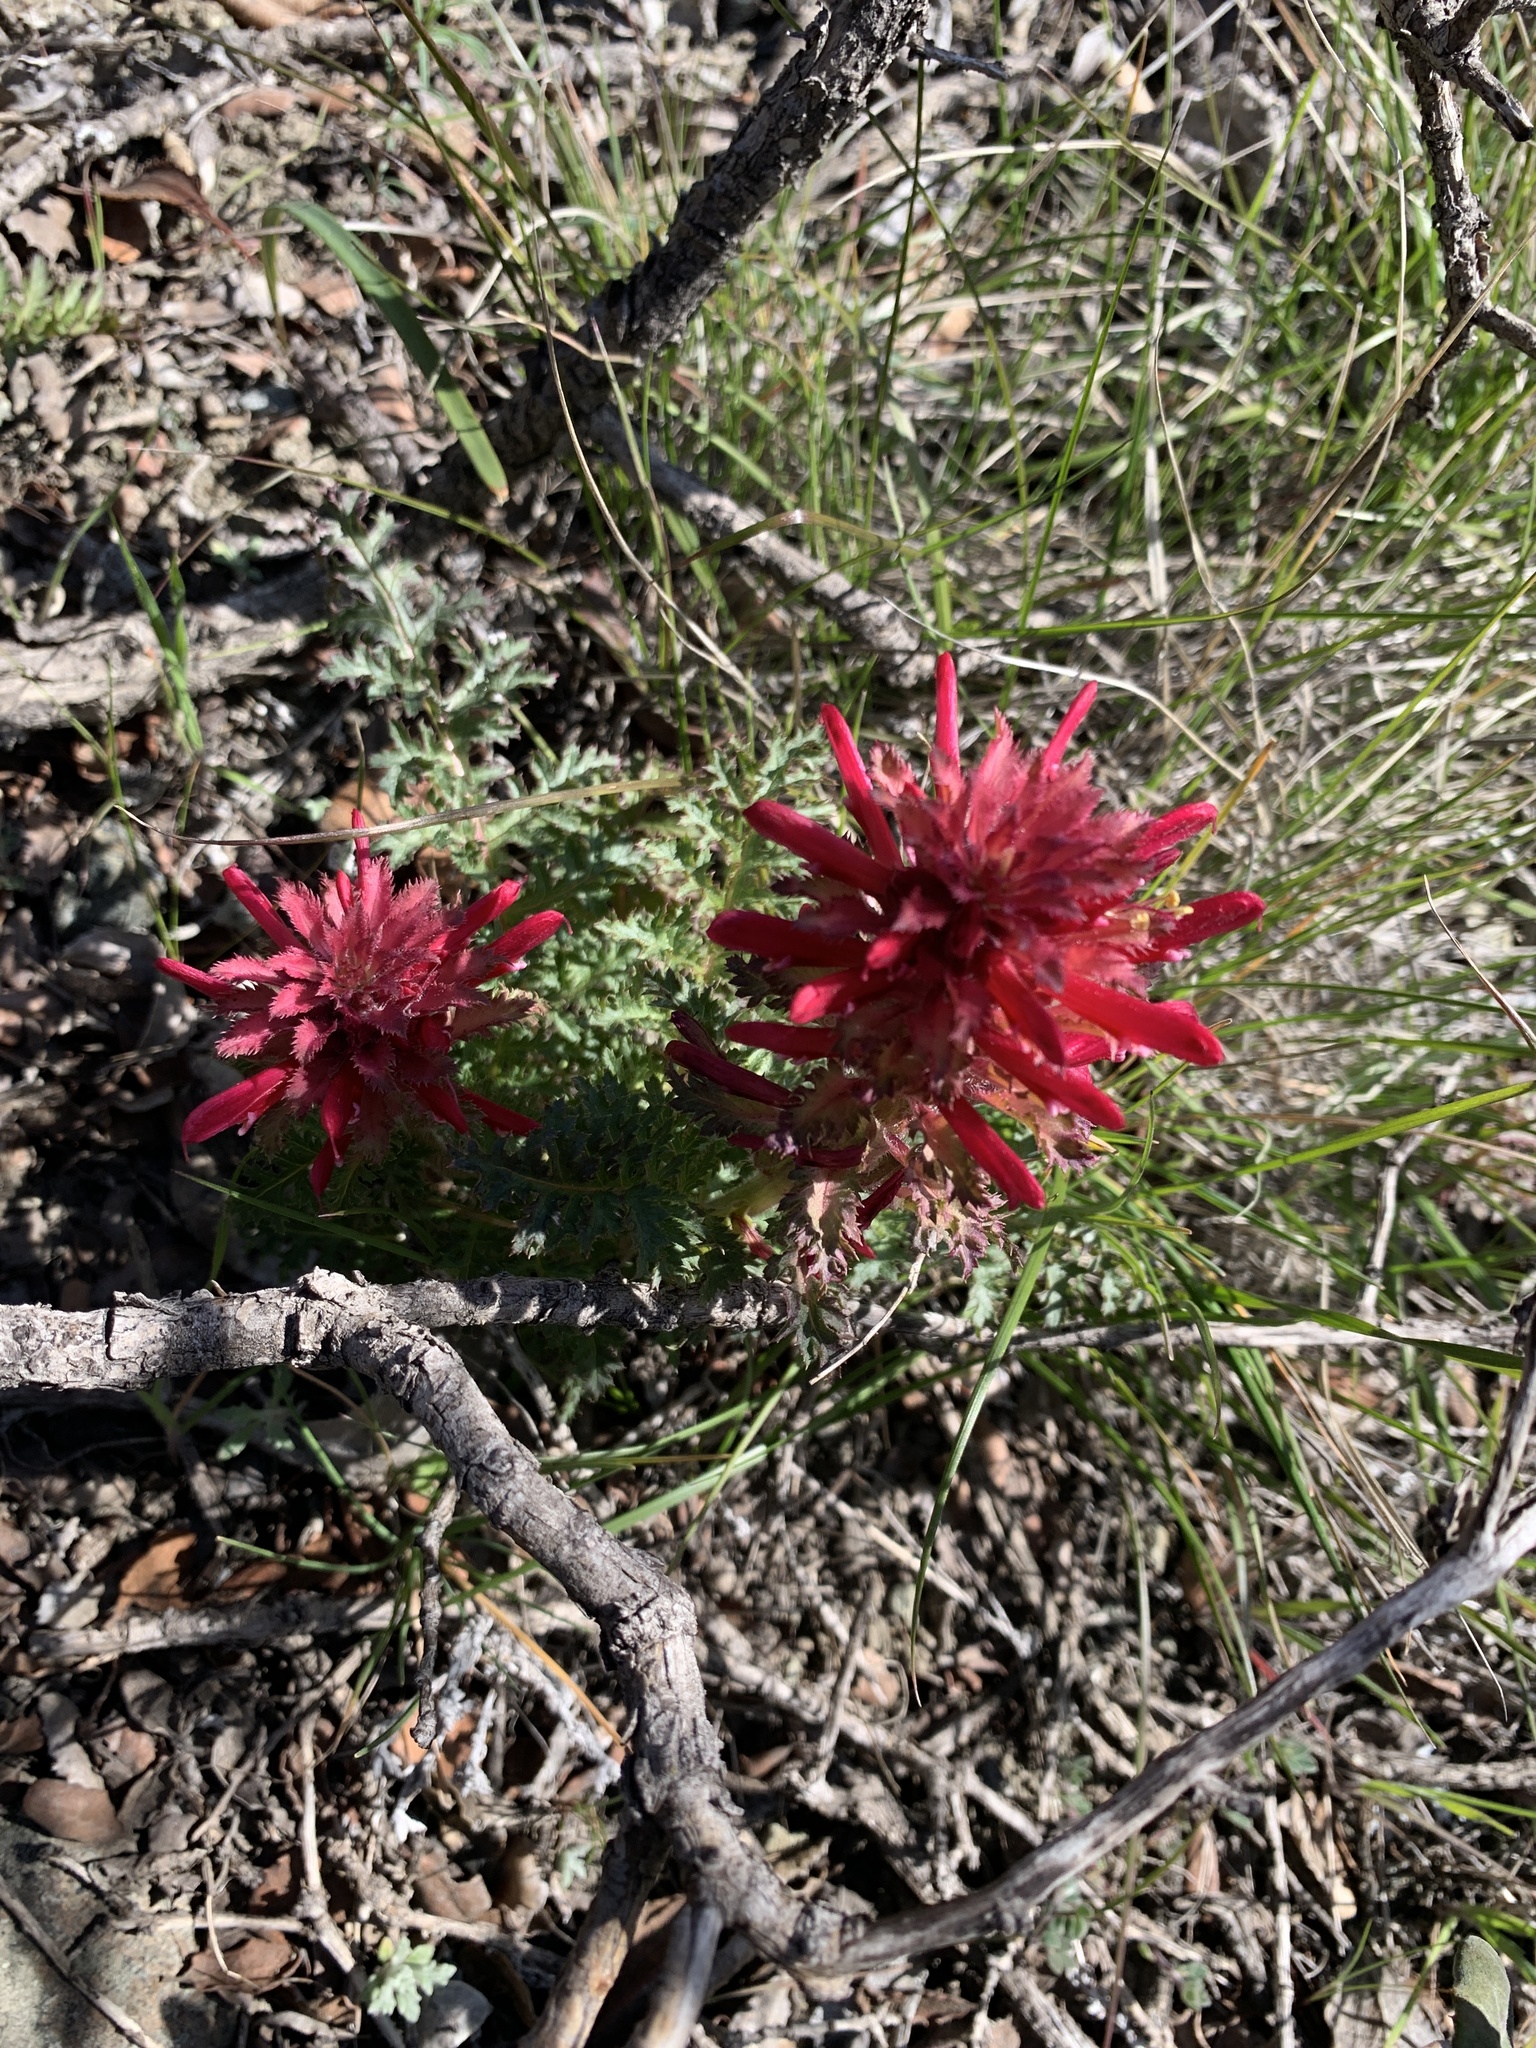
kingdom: Plantae
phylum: Tracheophyta
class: Magnoliopsida
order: Lamiales
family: Orobanchaceae
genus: Pedicularis
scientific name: Pedicularis densiflora
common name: Indian warrior
